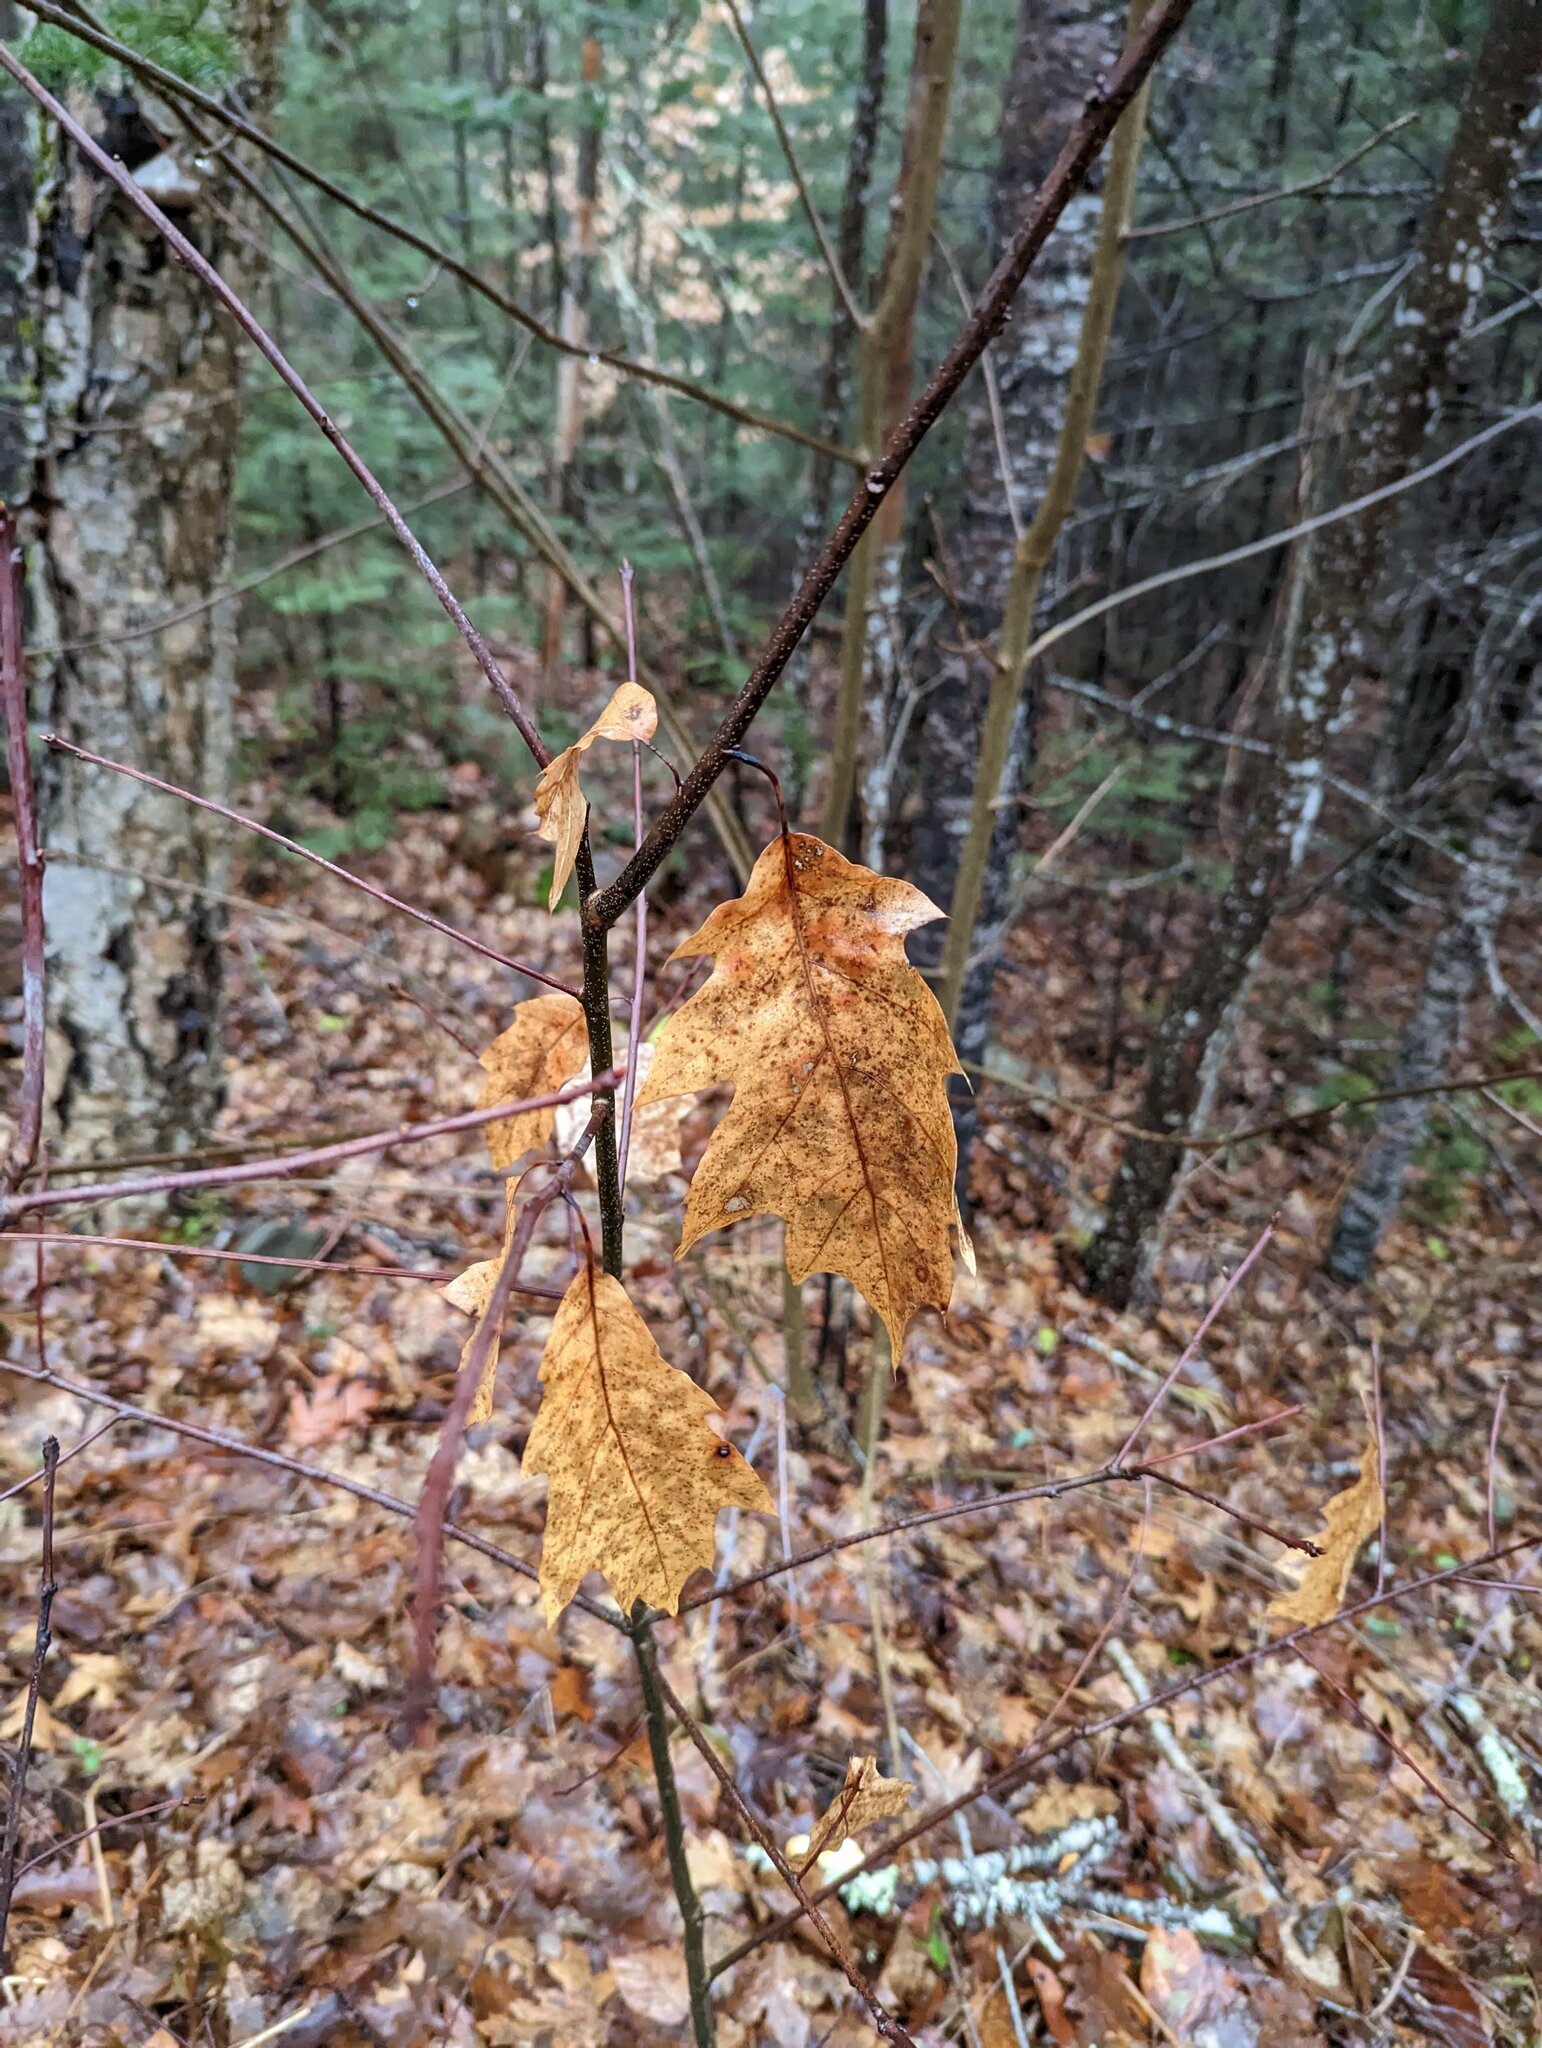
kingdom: Plantae
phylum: Tracheophyta
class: Magnoliopsida
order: Fagales
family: Fagaceae
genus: Quercus
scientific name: Quercus rubra
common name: Red oak
